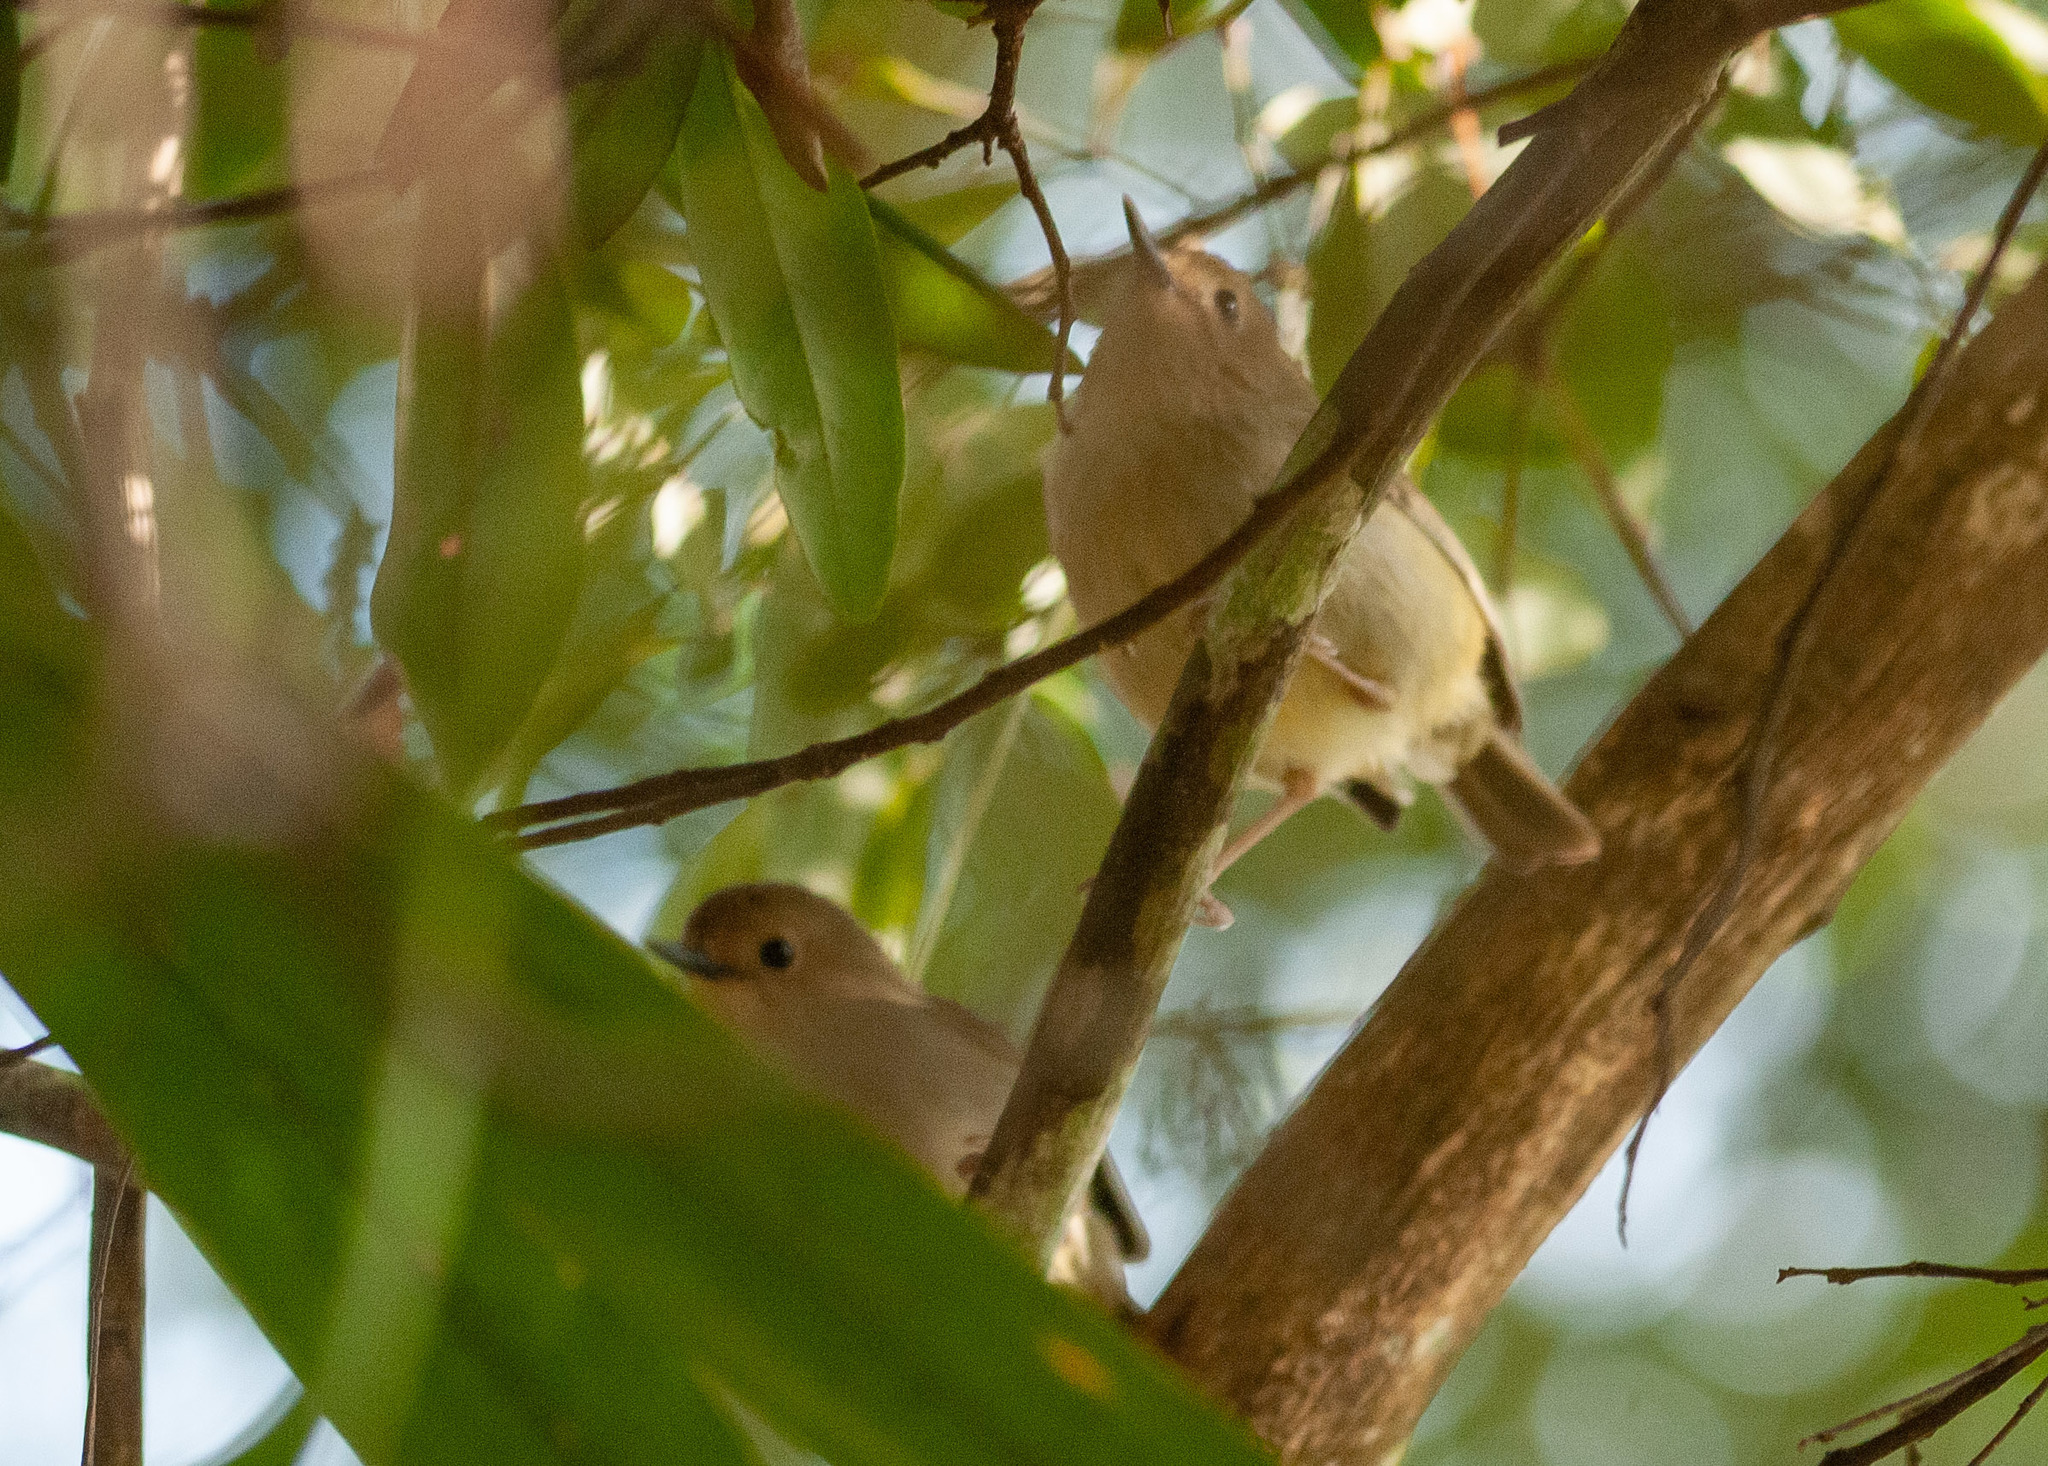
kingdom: Animalia
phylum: Chordata
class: Aves
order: Passeriformes
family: Acanthizidae
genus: Sericornis
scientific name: Sericornis magnirostra
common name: Large-billed scrubwren
